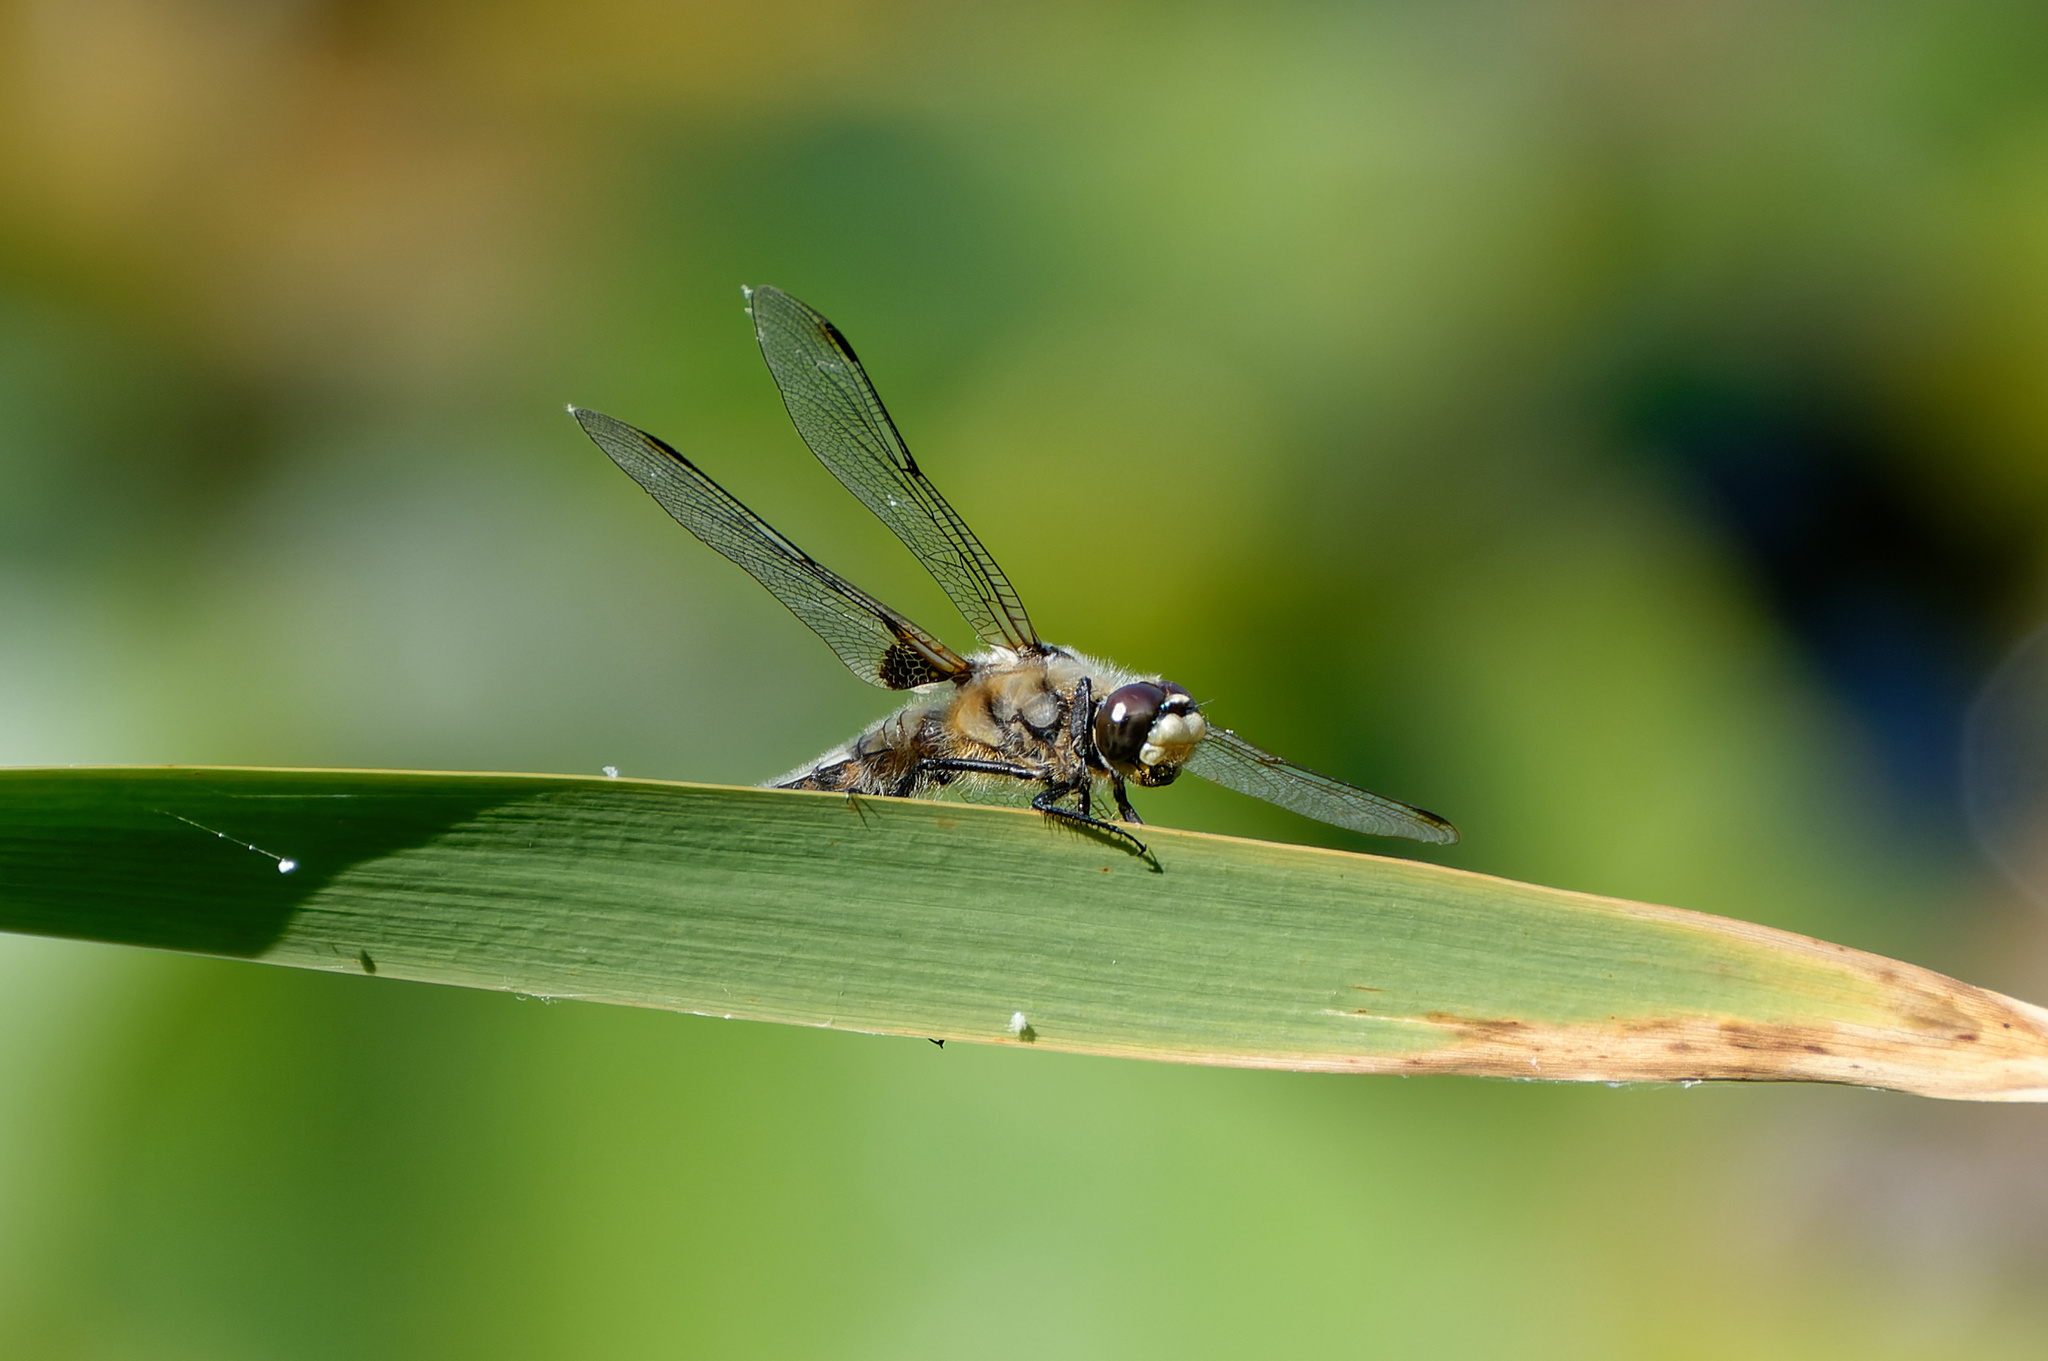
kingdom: Animalia
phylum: Arthropoda
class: Insecta
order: Odonata
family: Libellulidae
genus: Libellula
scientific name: Libellula quadrimaculata
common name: Four-spotted chaser
